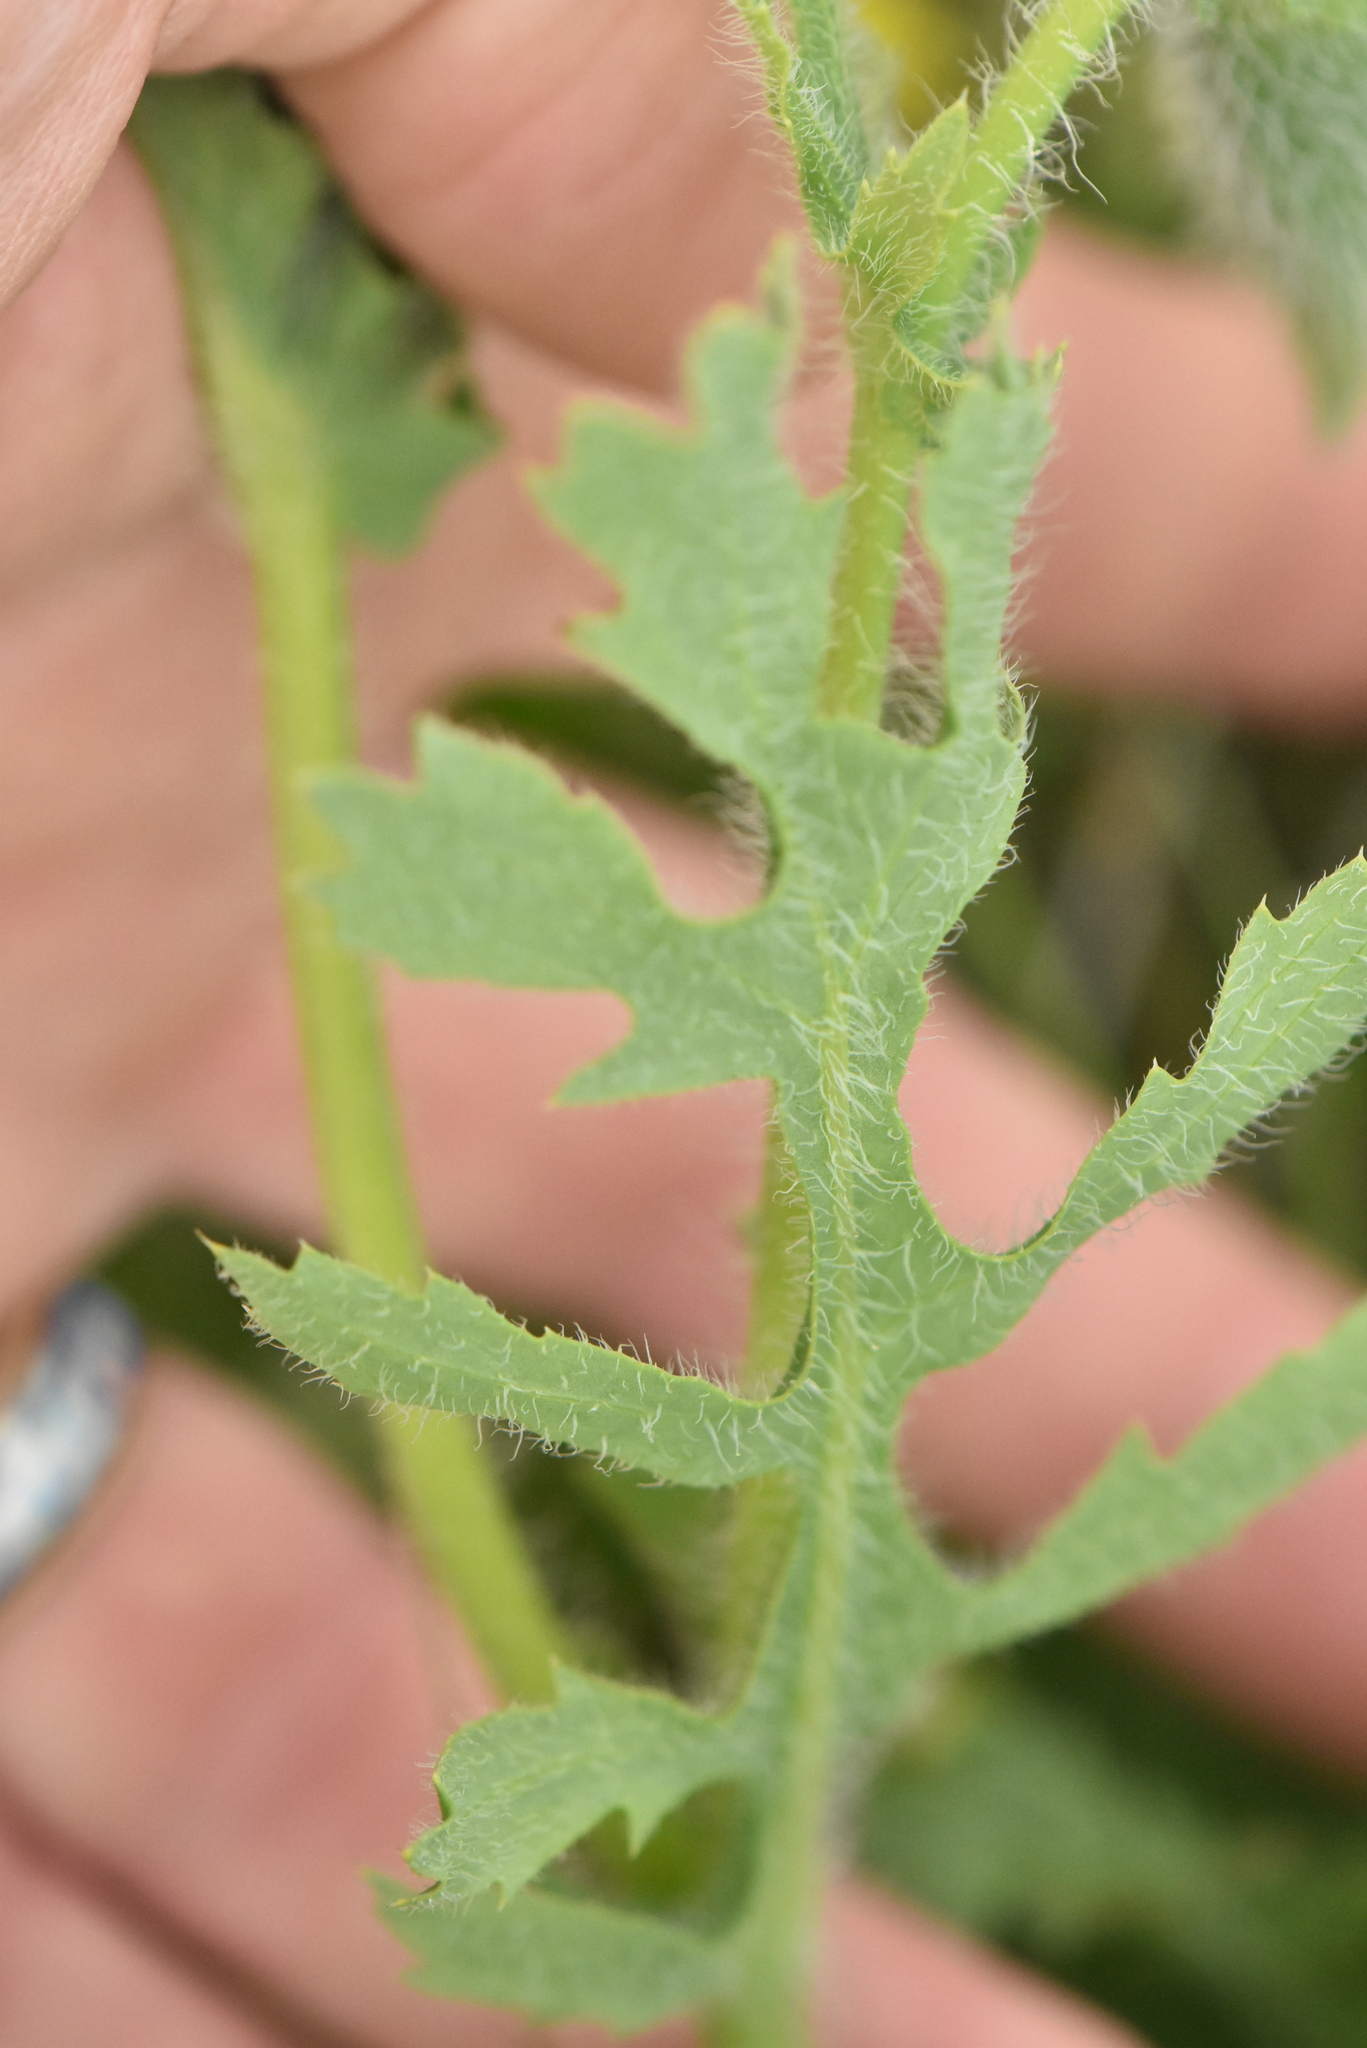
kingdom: Plantae
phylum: Tracheophyta
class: Magnoliopsida
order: Ranunculales
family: Papaveraceae
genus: Glaucium
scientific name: Glaucium corniculatum
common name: Red horned-poppy
